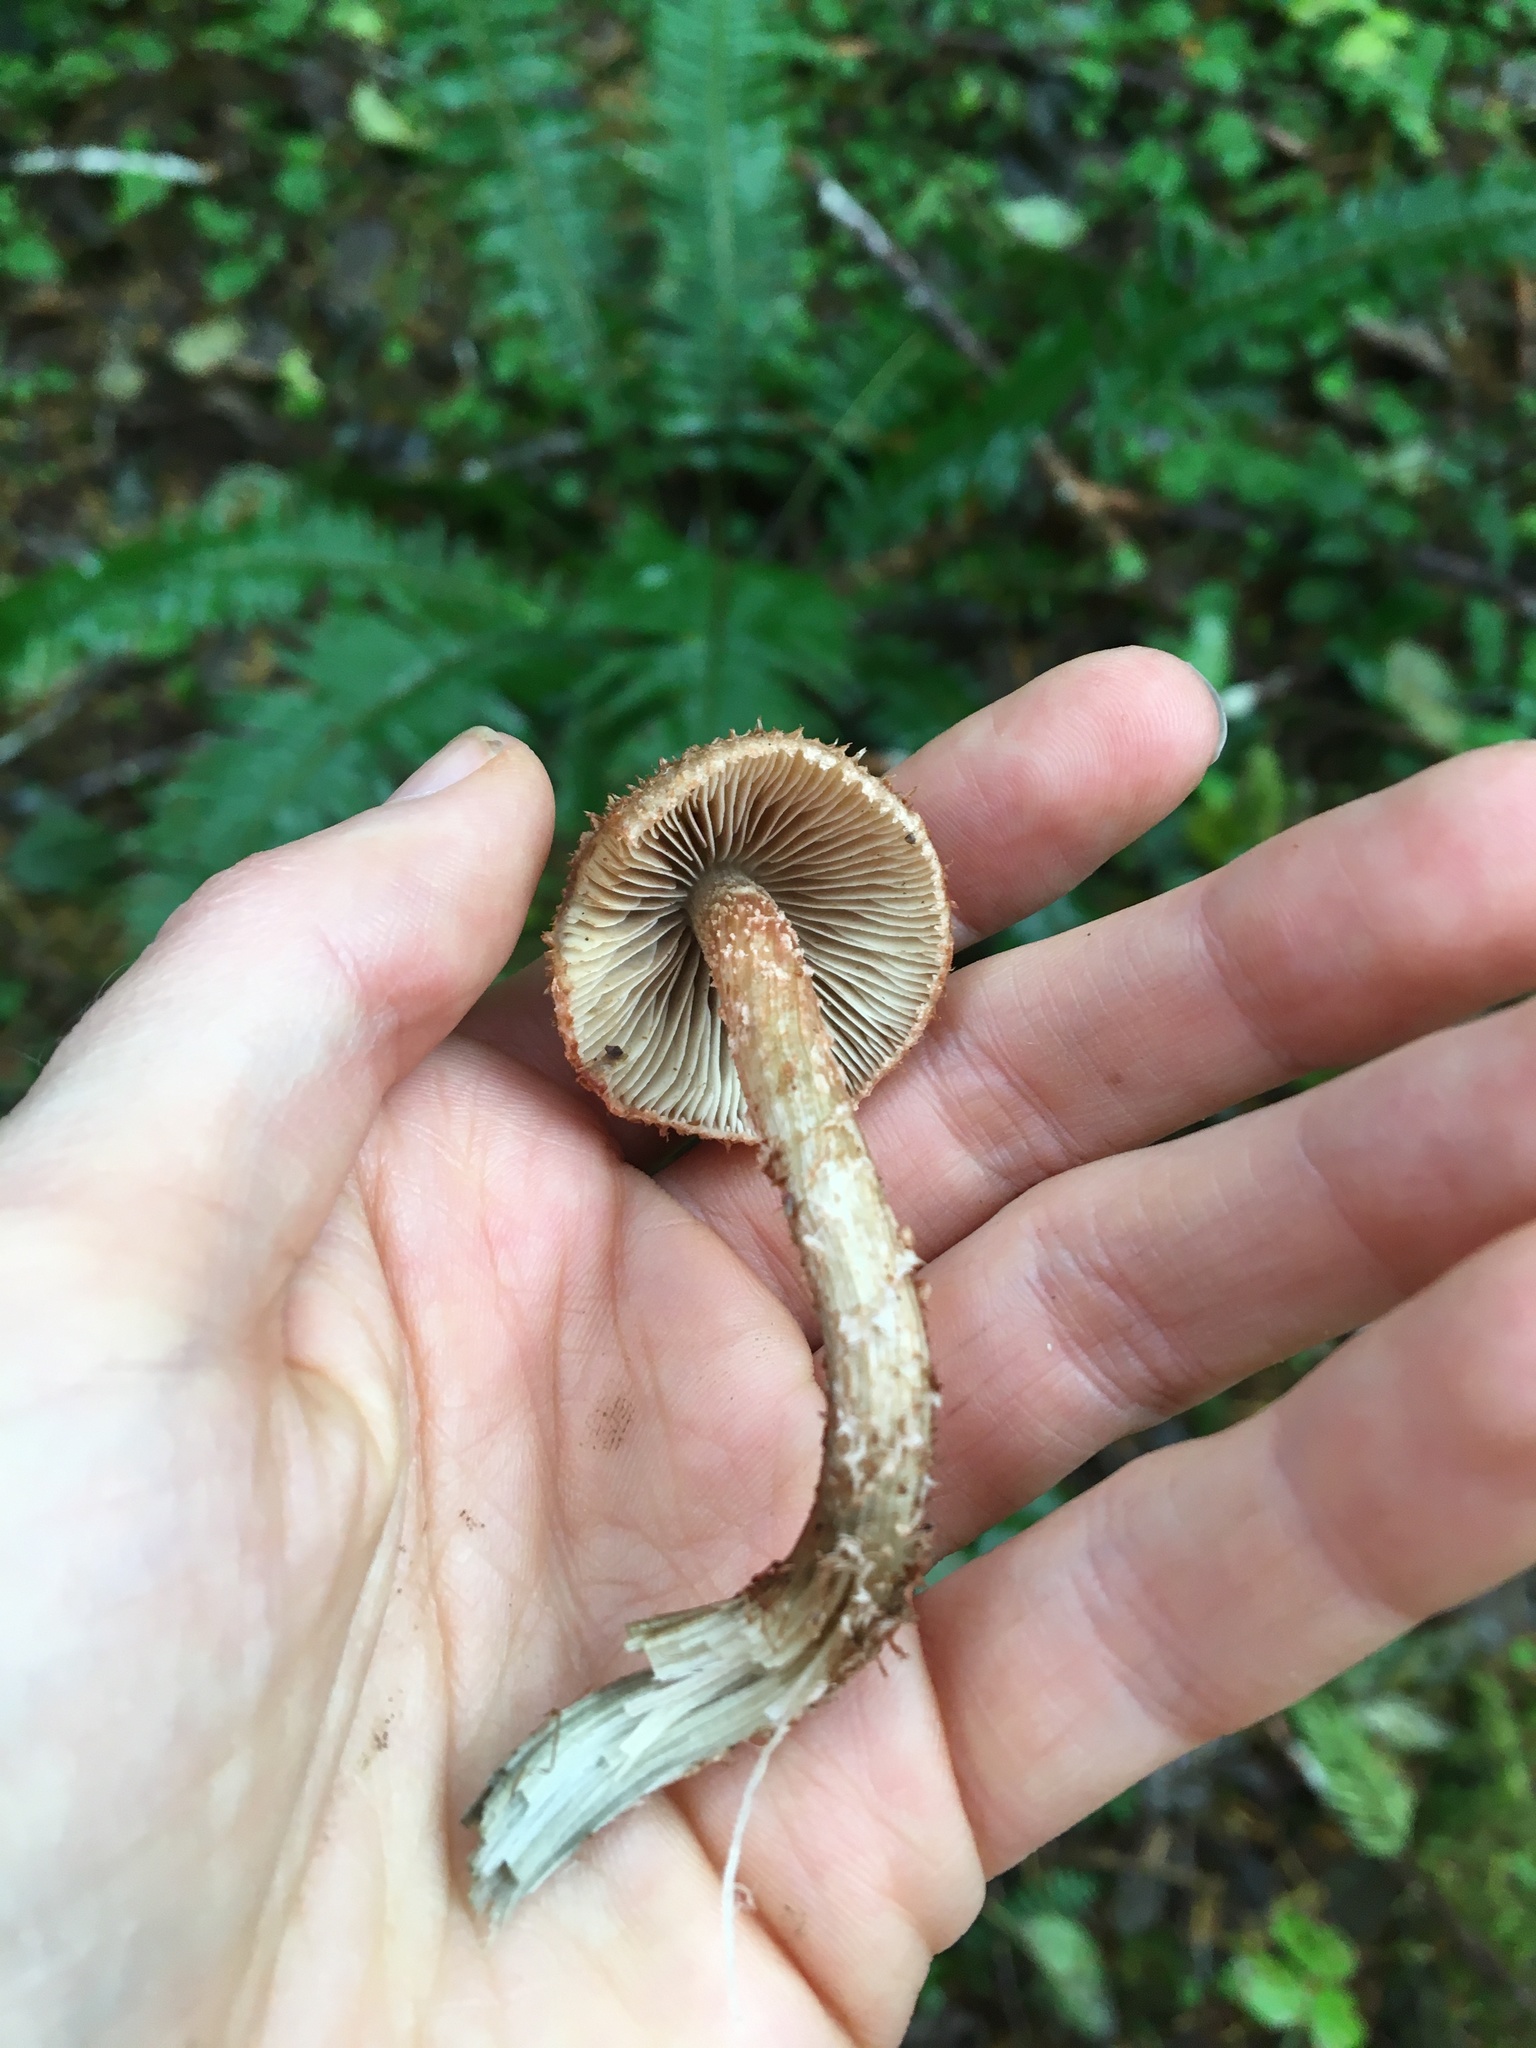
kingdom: Fungi
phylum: Basidiomycota
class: Agaricomycetes
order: Agaricales
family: Inocybaceae
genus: Inosperma
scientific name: Inosperma calamistratum
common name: Greenfoot fibrecap
